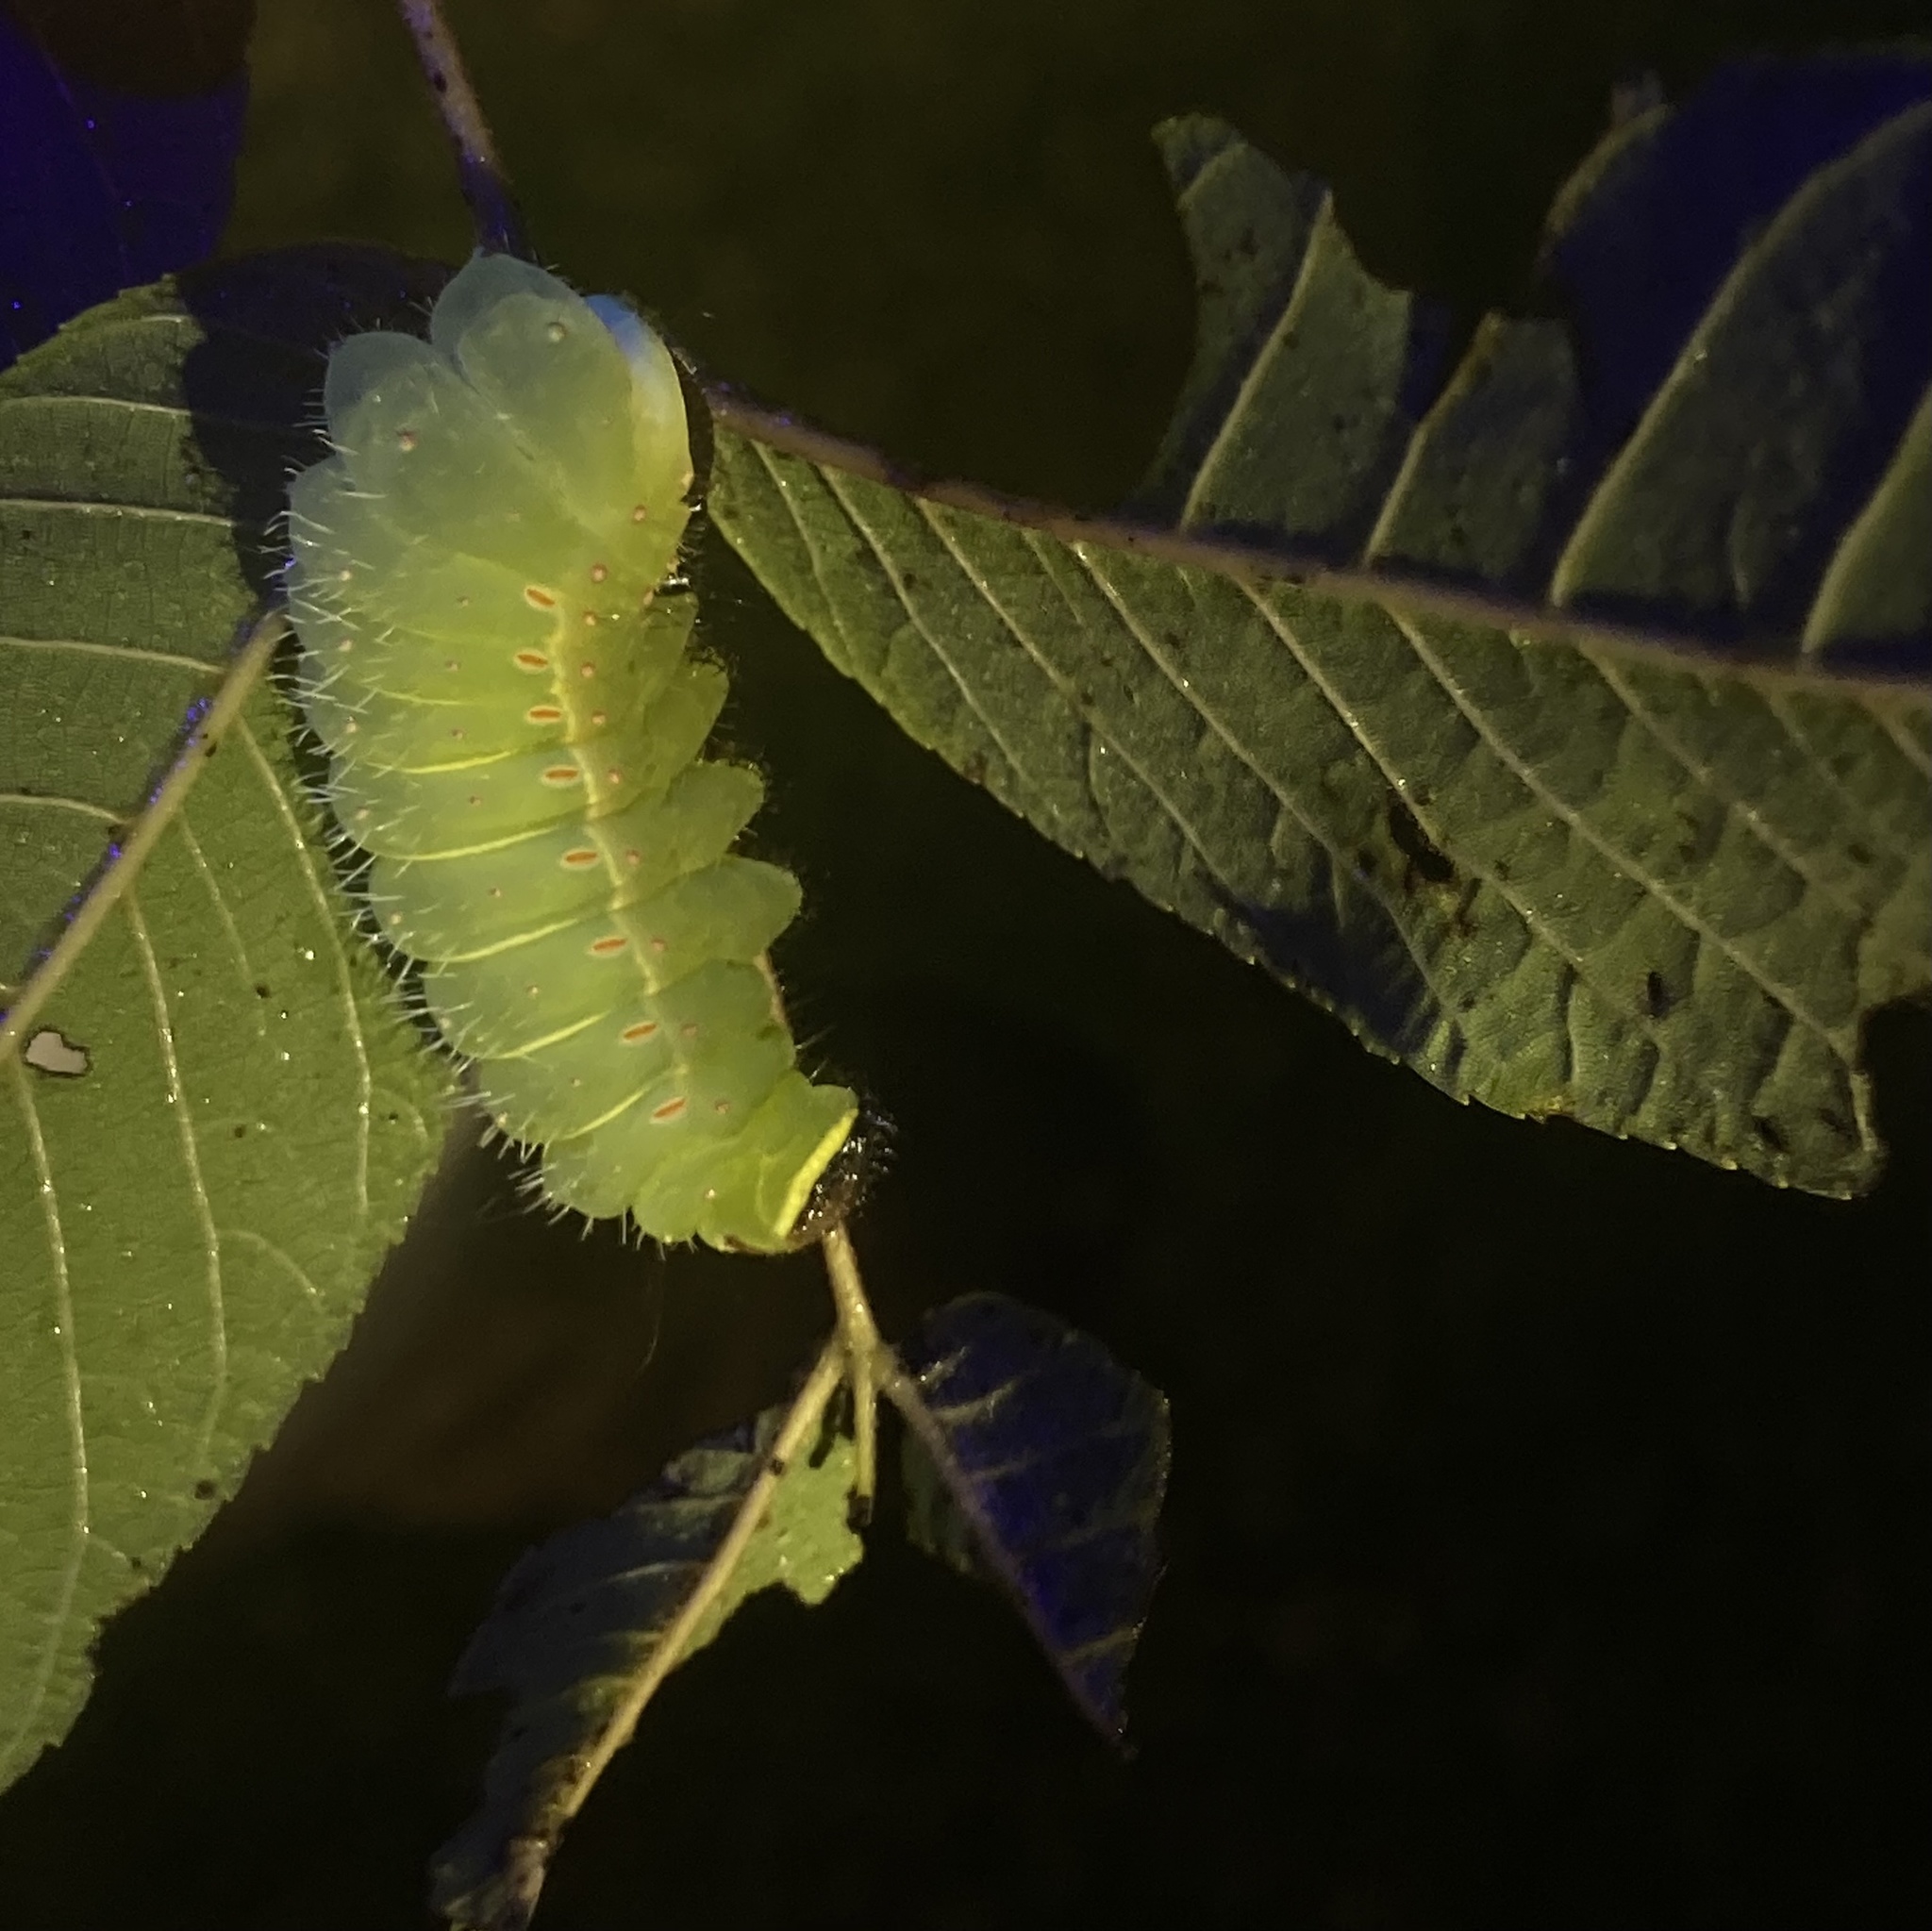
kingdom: Animalia
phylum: Arthropoda
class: Insecta
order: Lepidoptera
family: Saturniidae
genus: Actias
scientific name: Actias luna
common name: Luna moth
